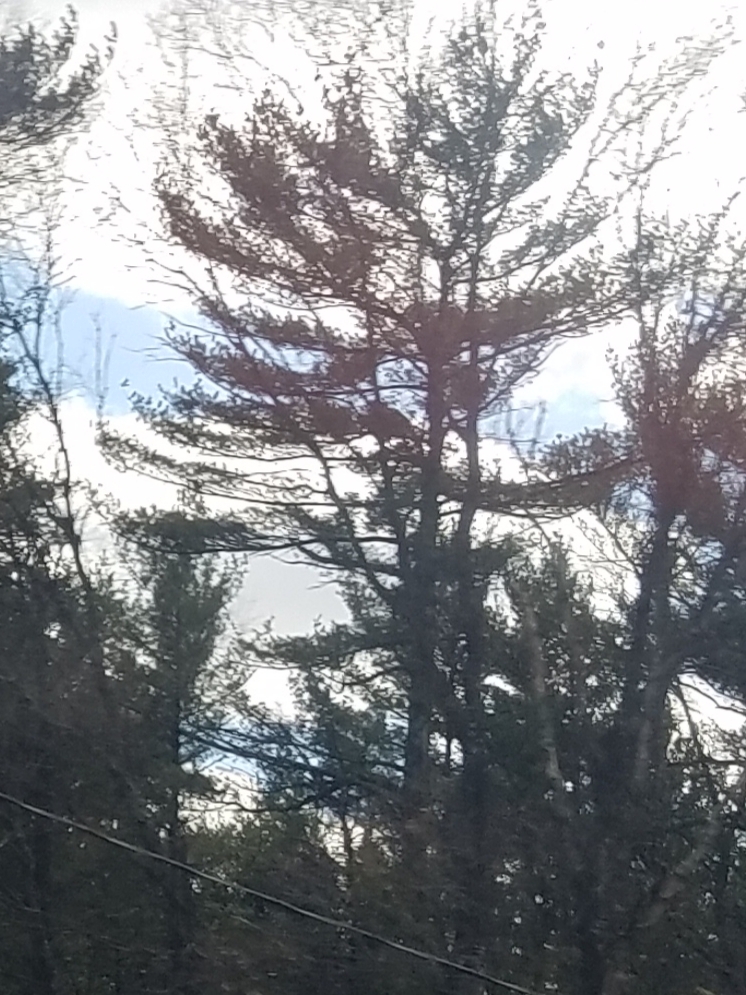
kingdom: Plantae
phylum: Tracheophyta
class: Pinopsida
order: Pinales
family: Pinaceae
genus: Pinus
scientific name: Pinus strobus
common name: Weymouth pine
